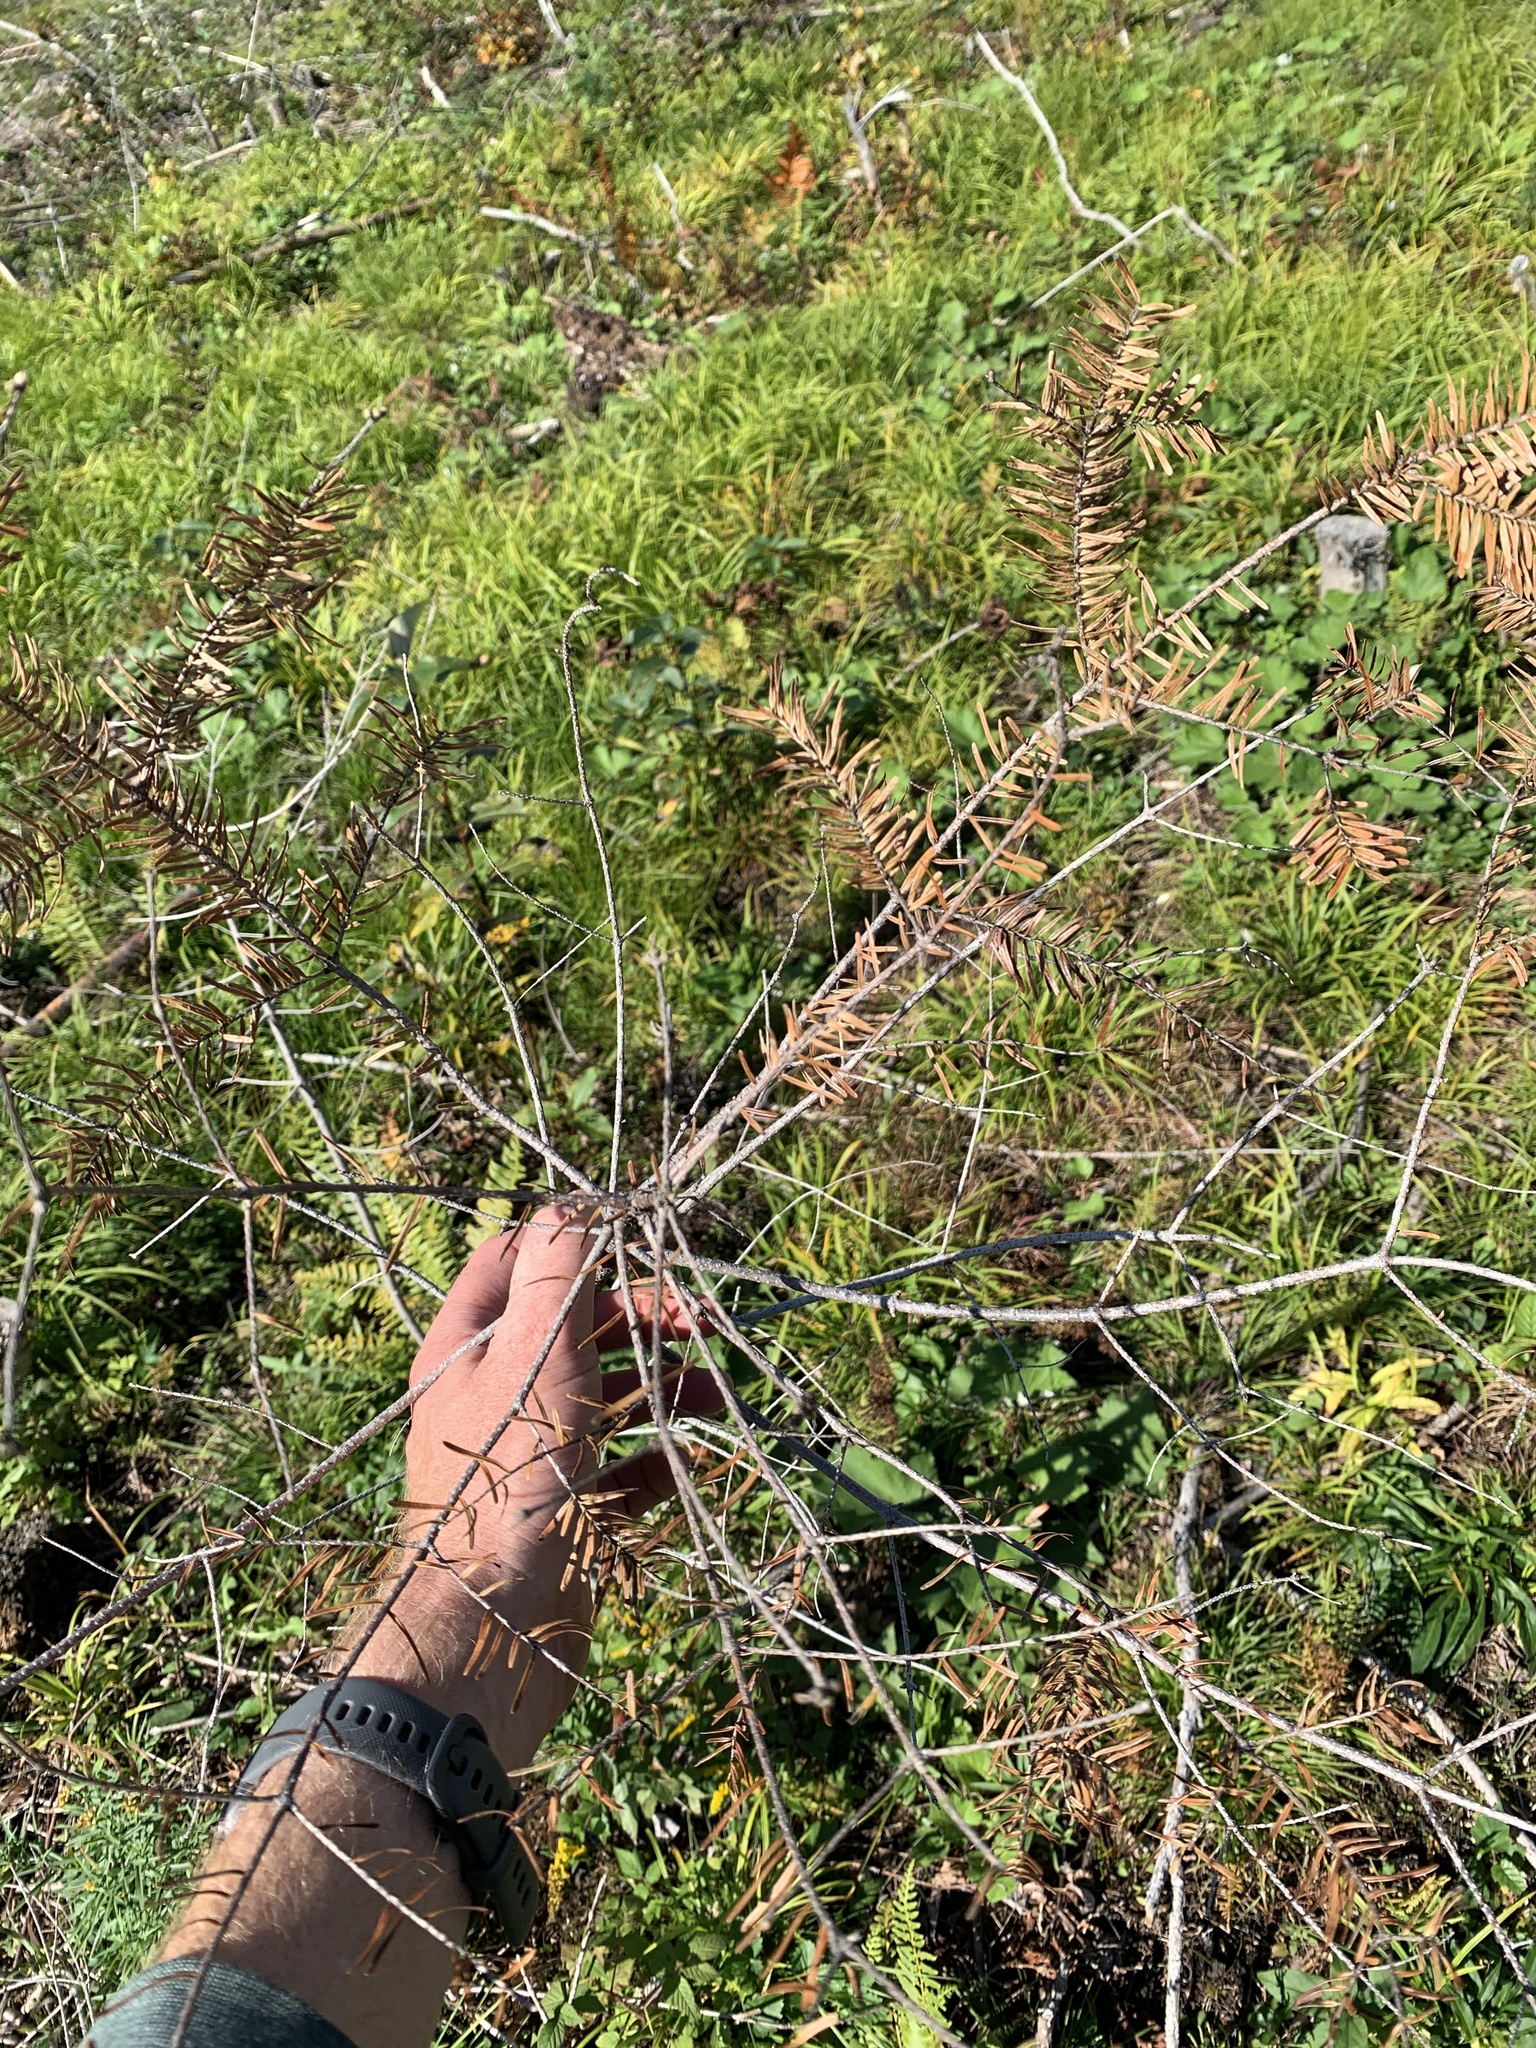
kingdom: Plantae
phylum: Tracheophyta
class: Pinopsida
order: Pinales
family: Pinaceae
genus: Abies
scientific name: Abies balsamea
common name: Balsam fir
